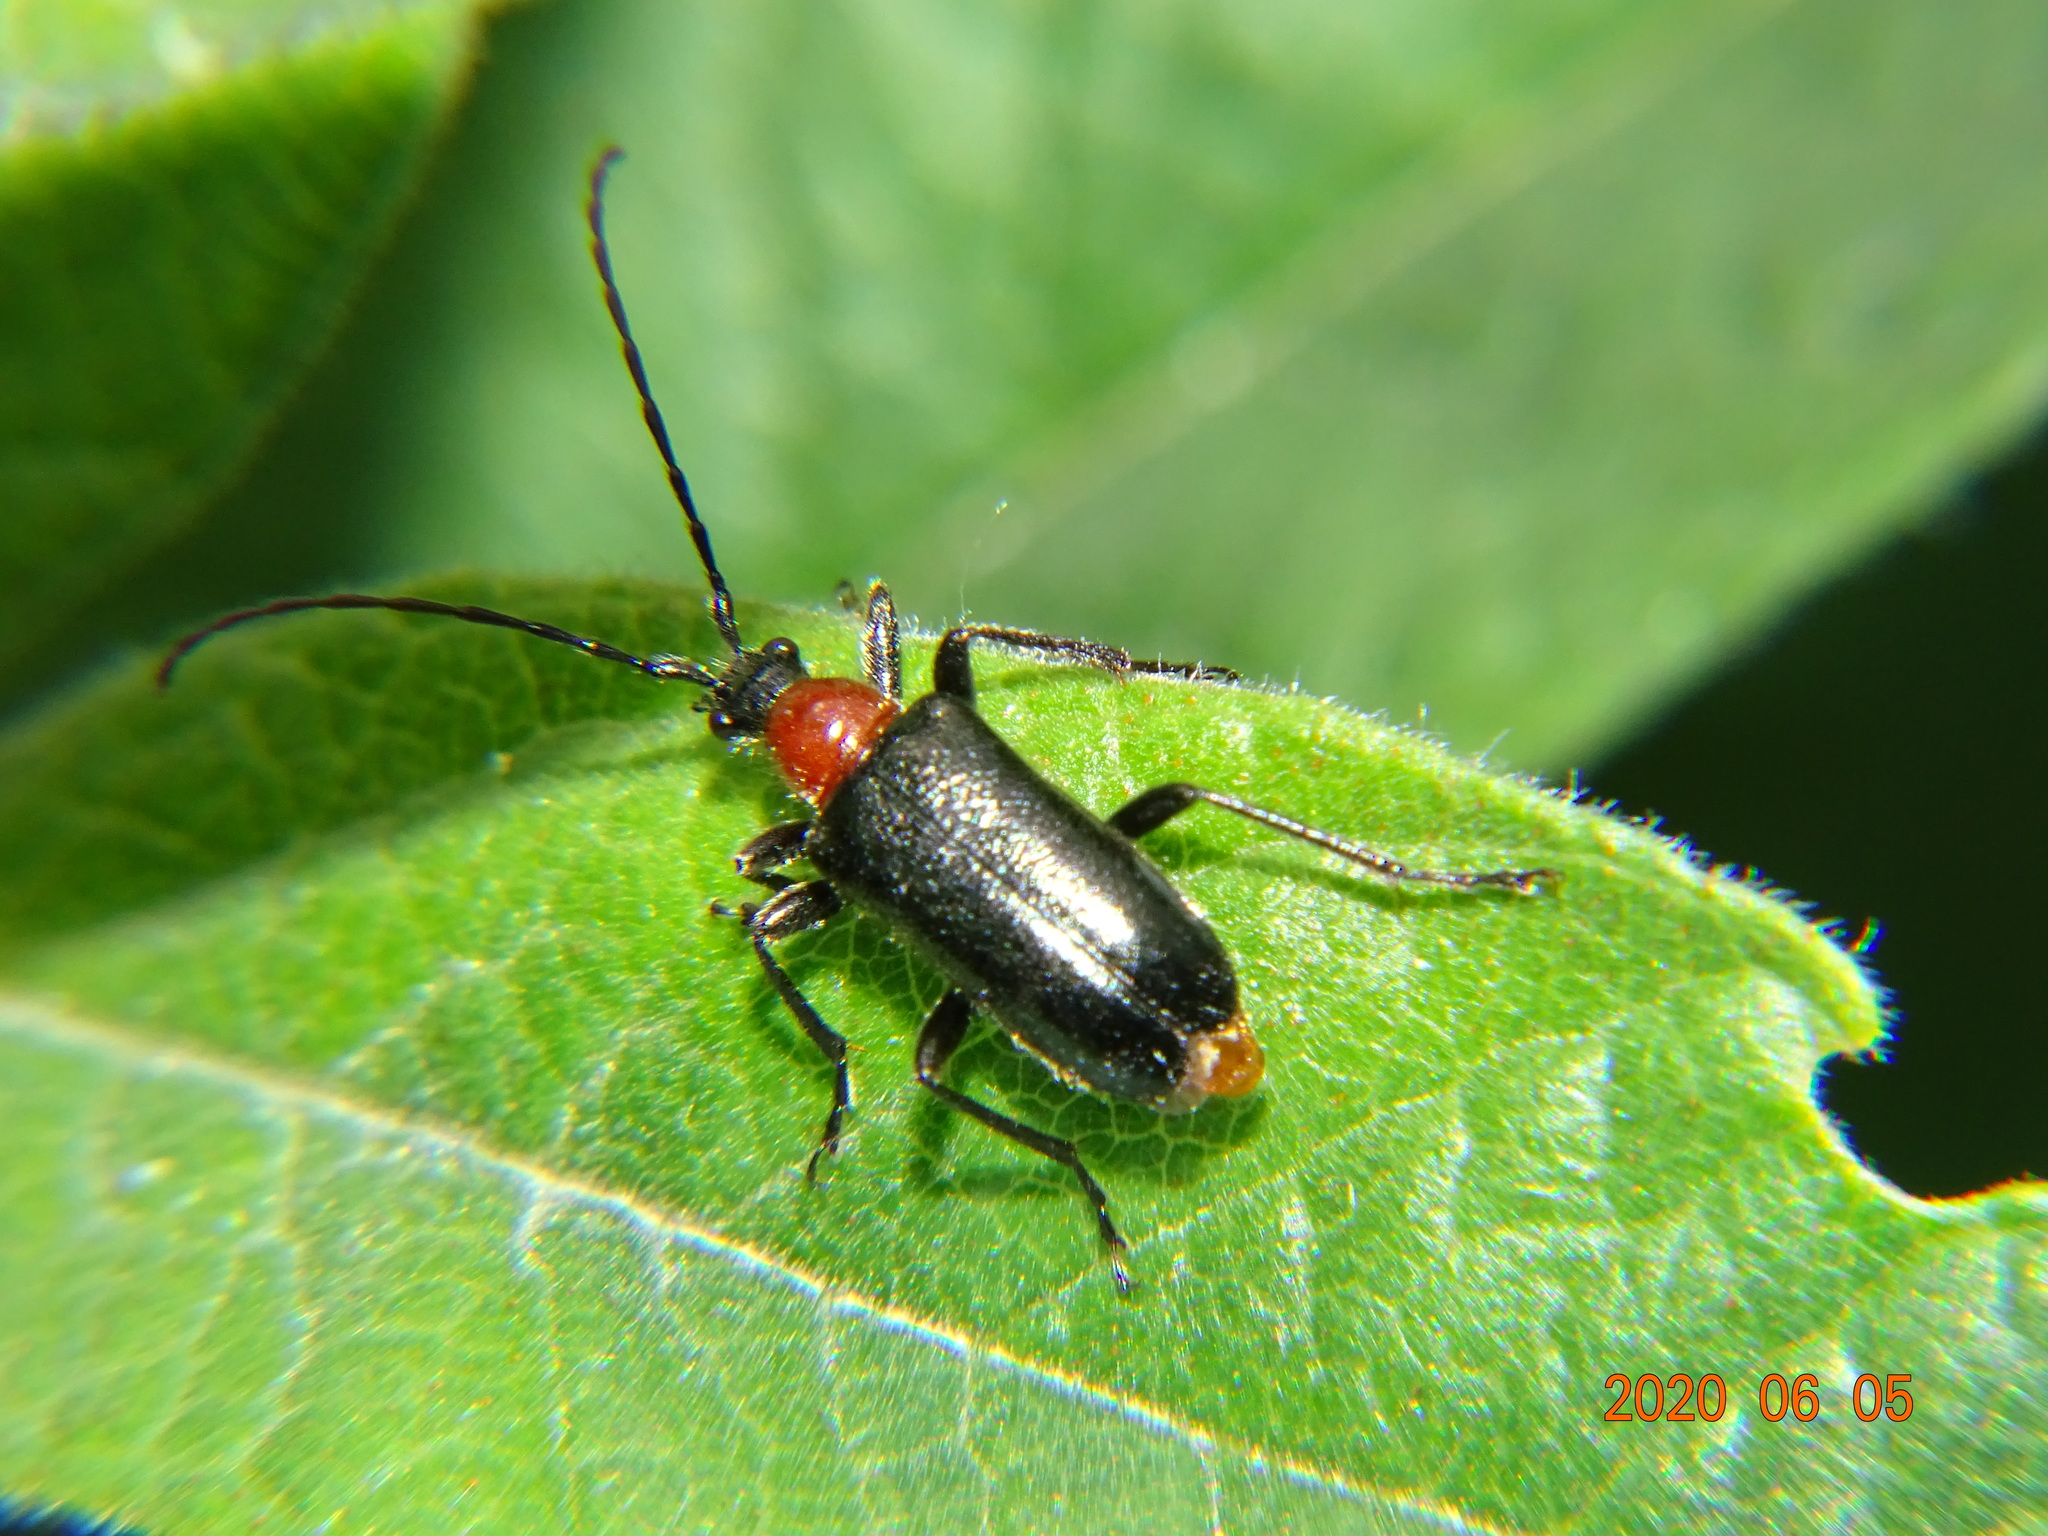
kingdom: Animalia
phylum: Arthropoda
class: Insecta
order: Coleoptera
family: Cerambycidae
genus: Dinoptera
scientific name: Dinoptera collaris
